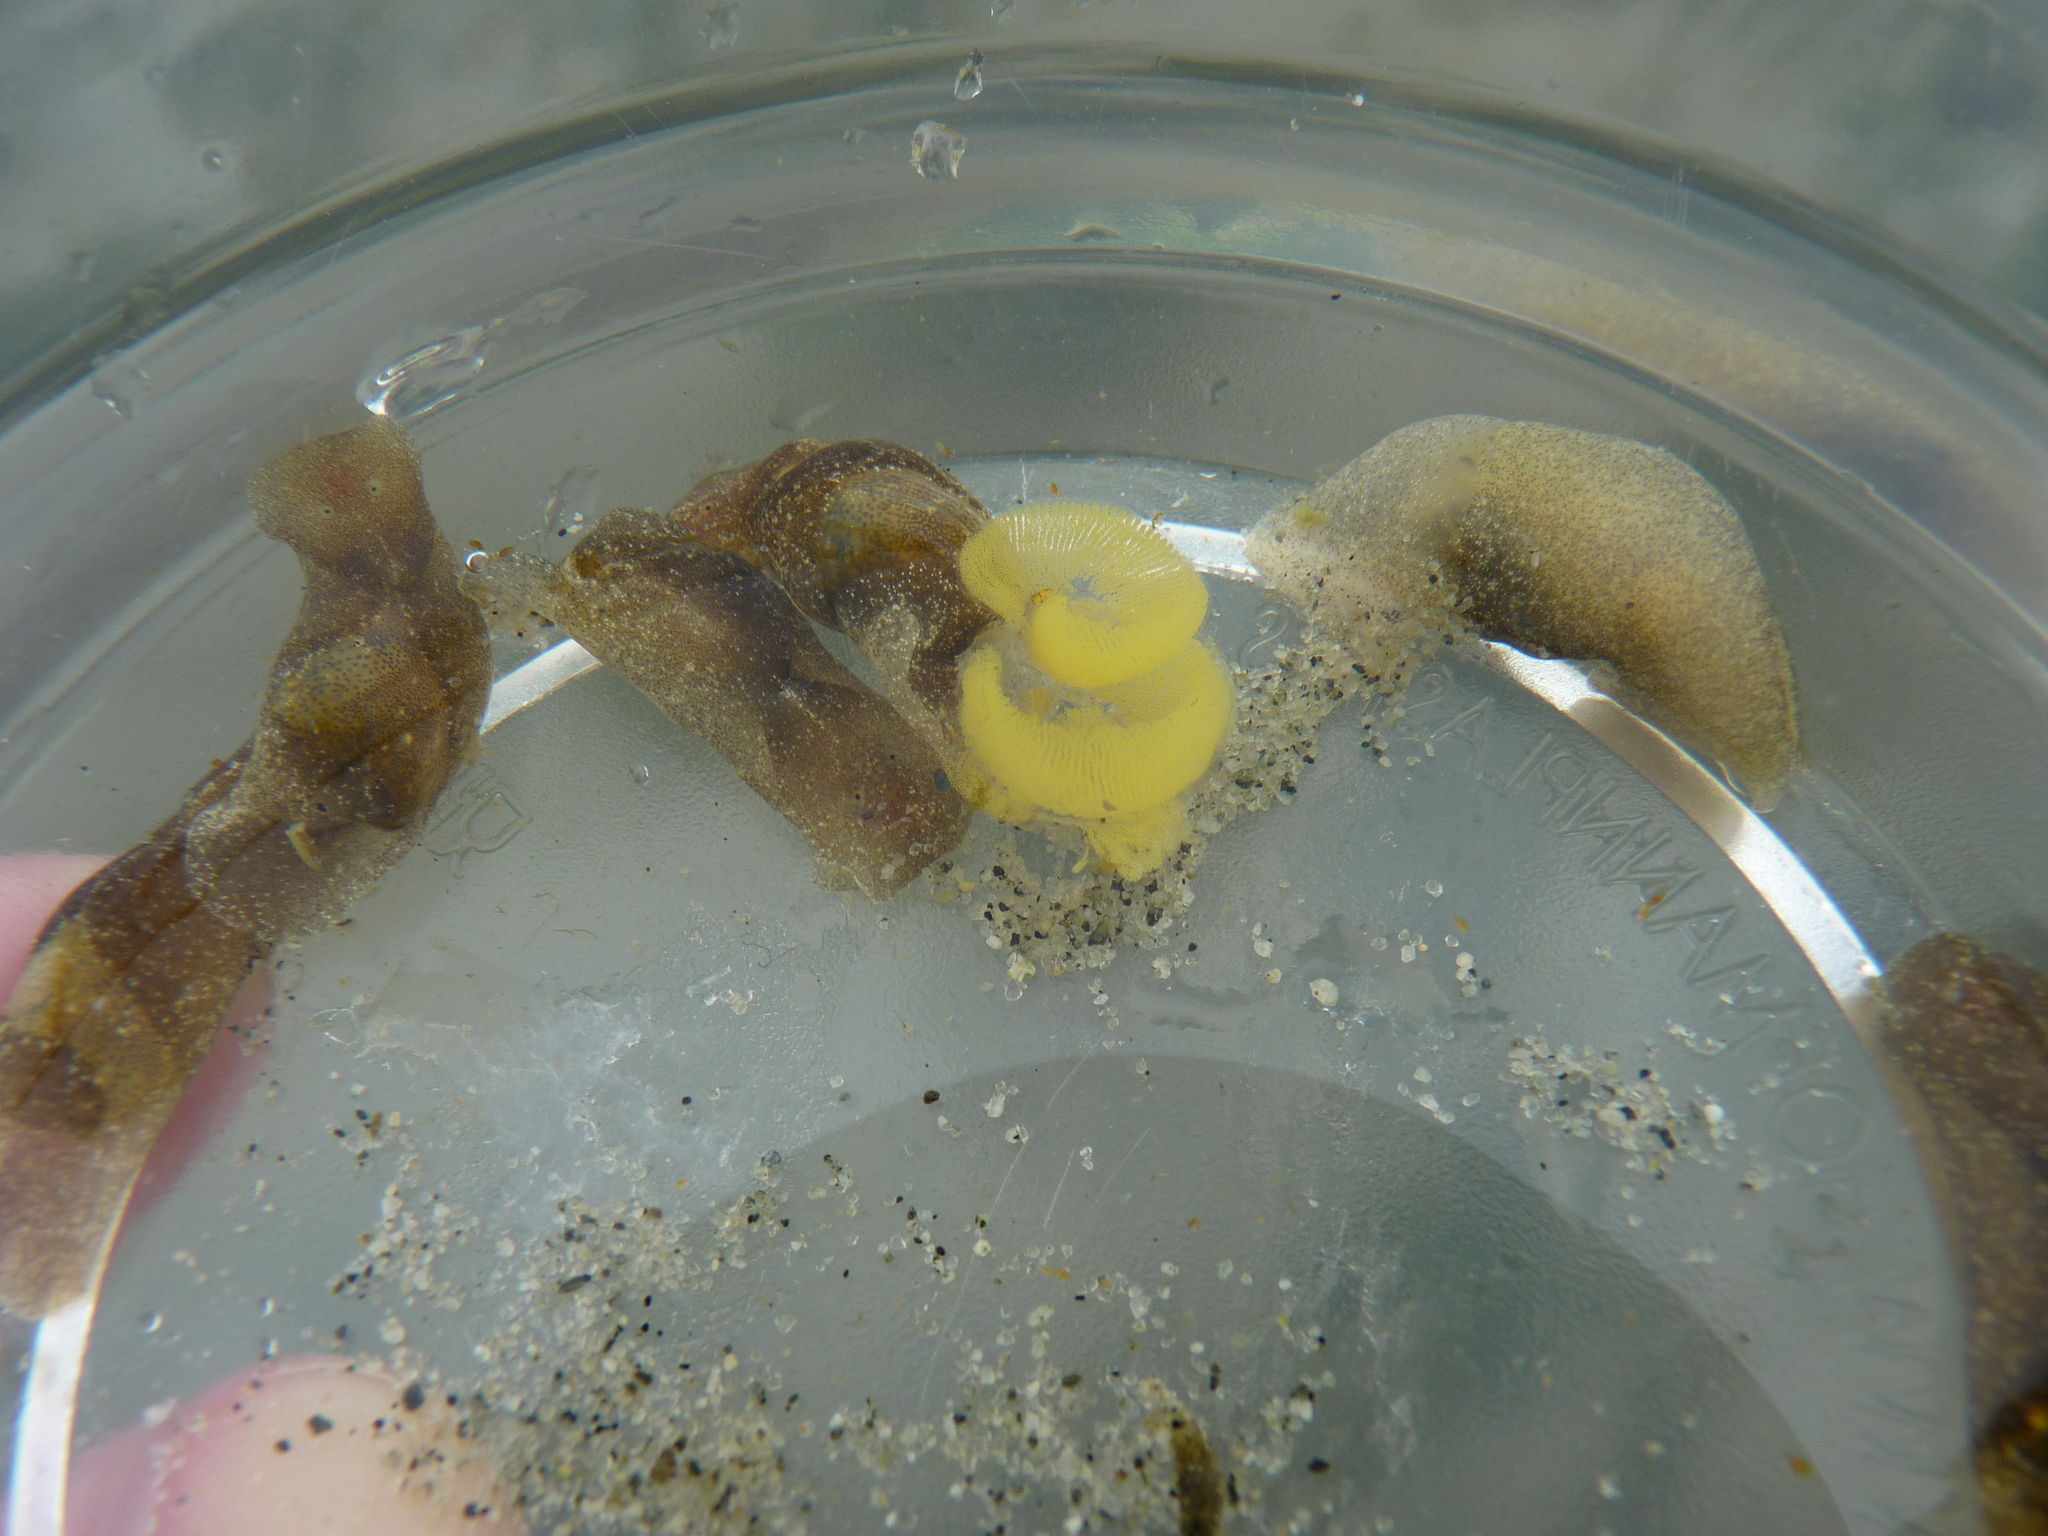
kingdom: Animalia
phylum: Mollusca
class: Gastropoda
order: Cephalaspidea
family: Haminoeidae
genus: Haminoea
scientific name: Haminoea vesicula
